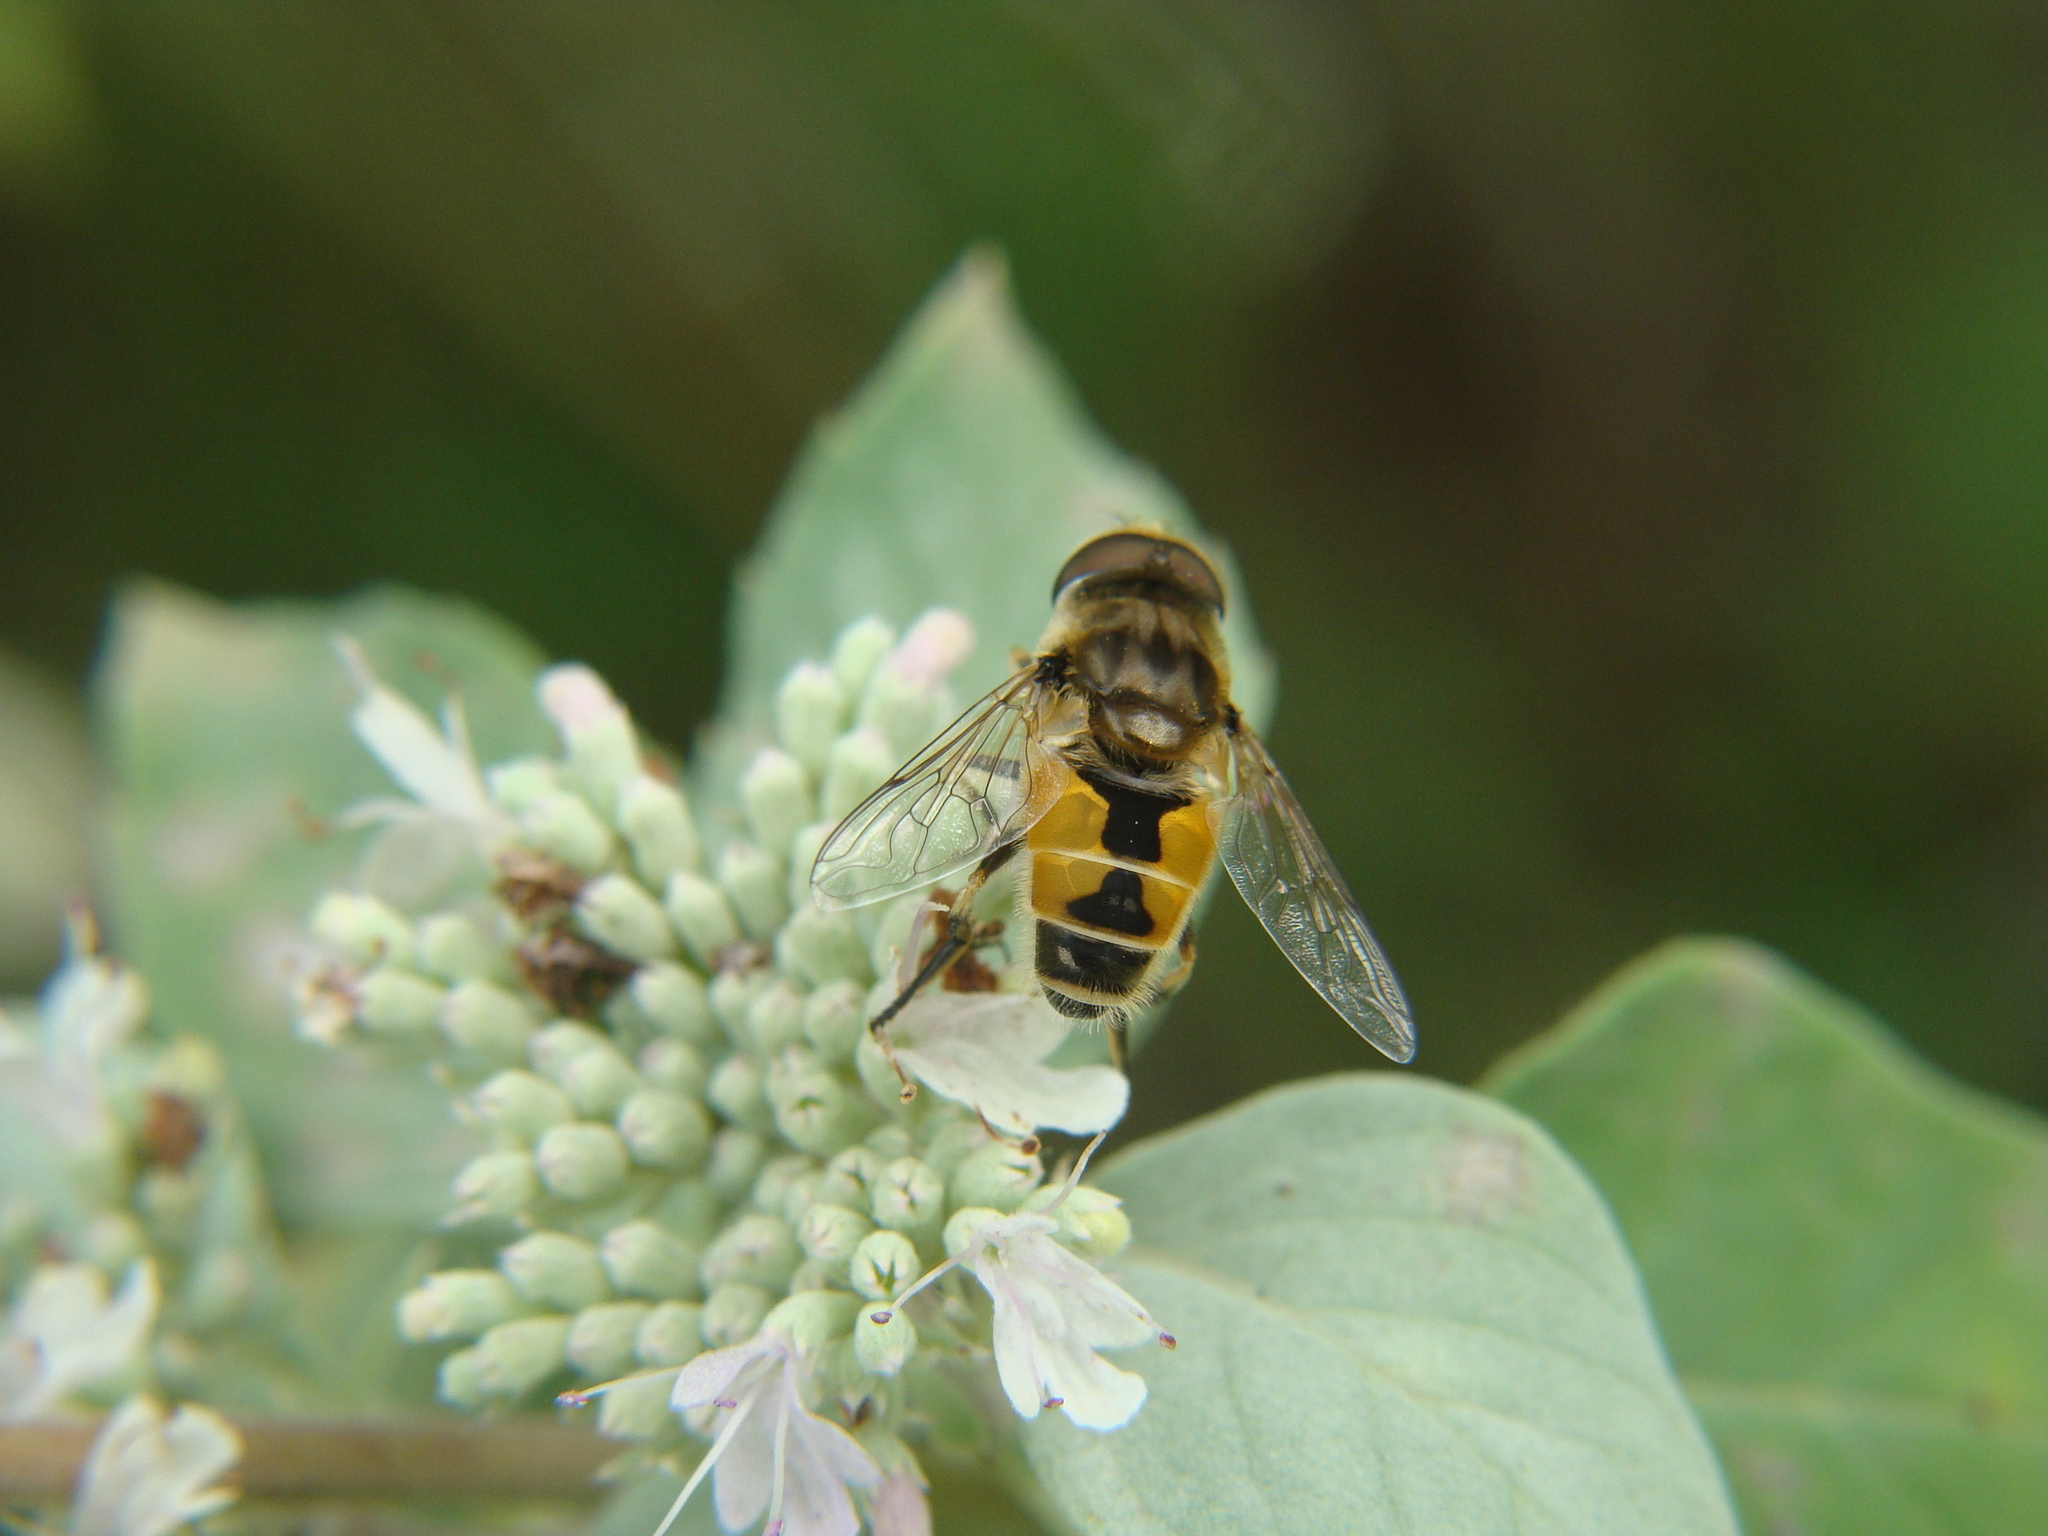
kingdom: Animalia
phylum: Arthropoda
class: Insecta
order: Diptera
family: Syrphidae
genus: Eristalis
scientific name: Eristalis arbustorum
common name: Hover fly
